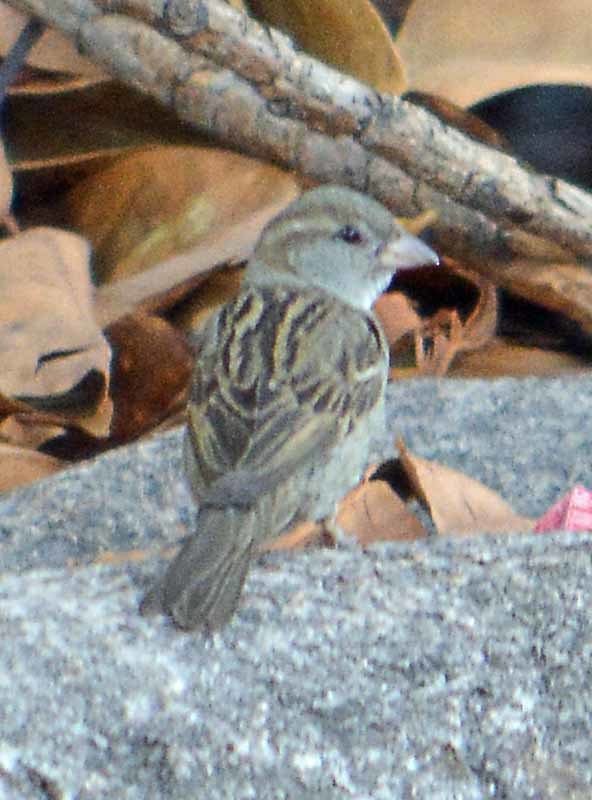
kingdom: Animalia
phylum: Chordata
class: Aves
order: Passeriformes
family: Passeridae
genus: Passer
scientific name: Passer domesticus
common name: House sparrow
